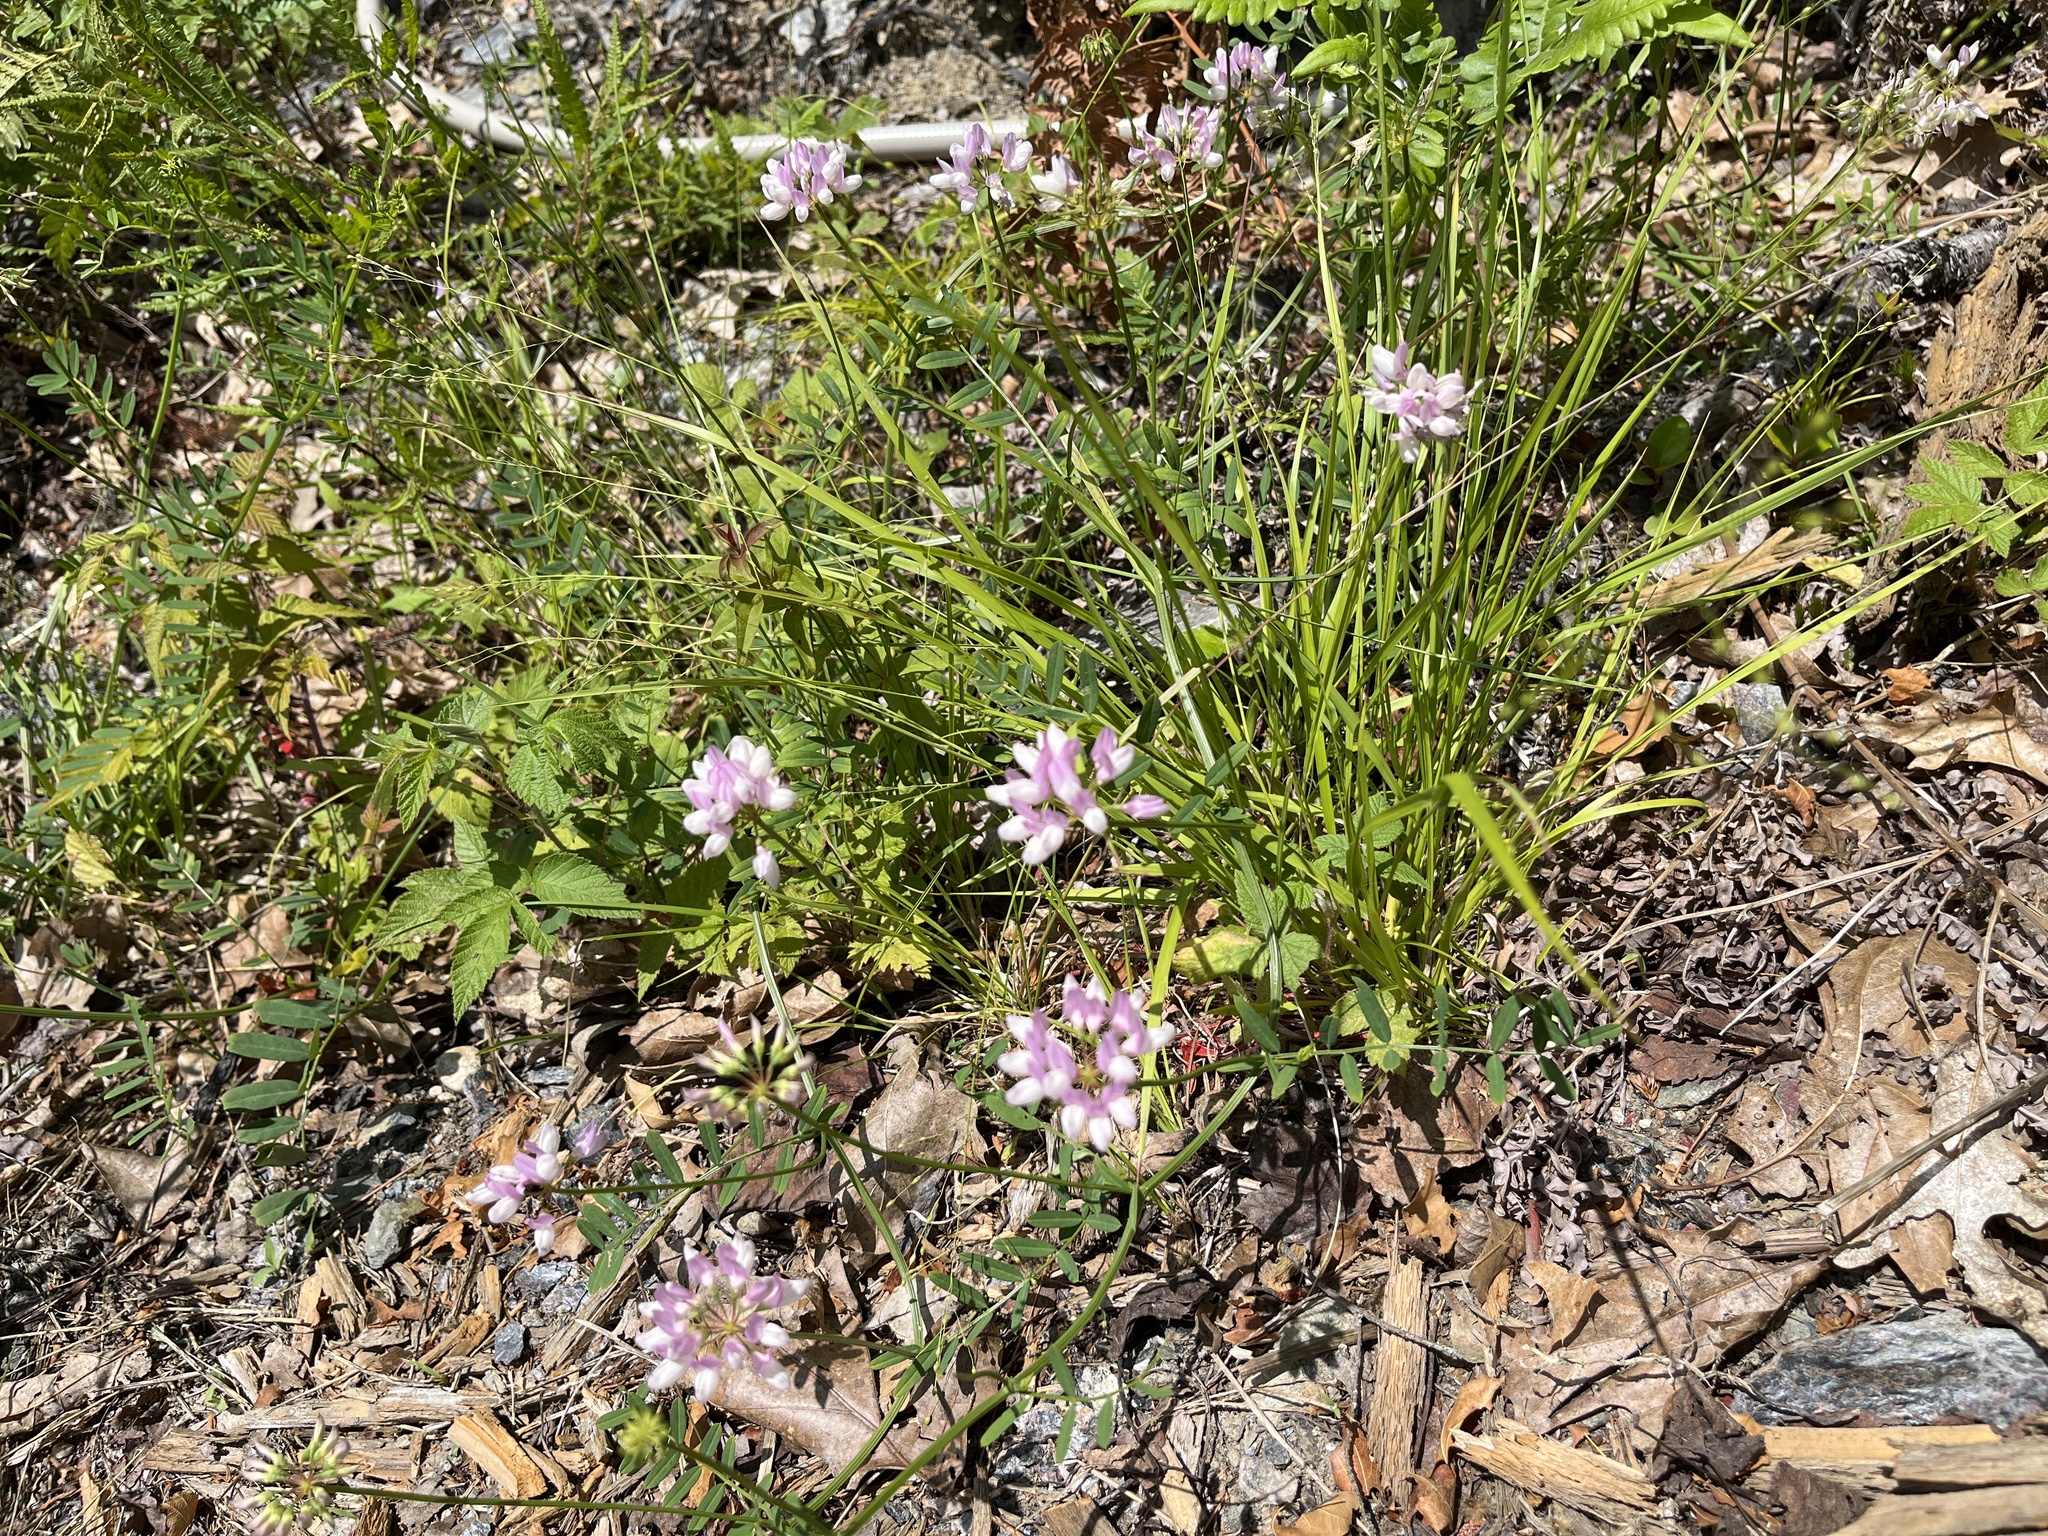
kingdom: Plantae
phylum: Tracheophyta
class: Magnoliopsida
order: Fabales
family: Fabaceae
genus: Coronilla
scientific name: Coronilla varia
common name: Crownvetch
